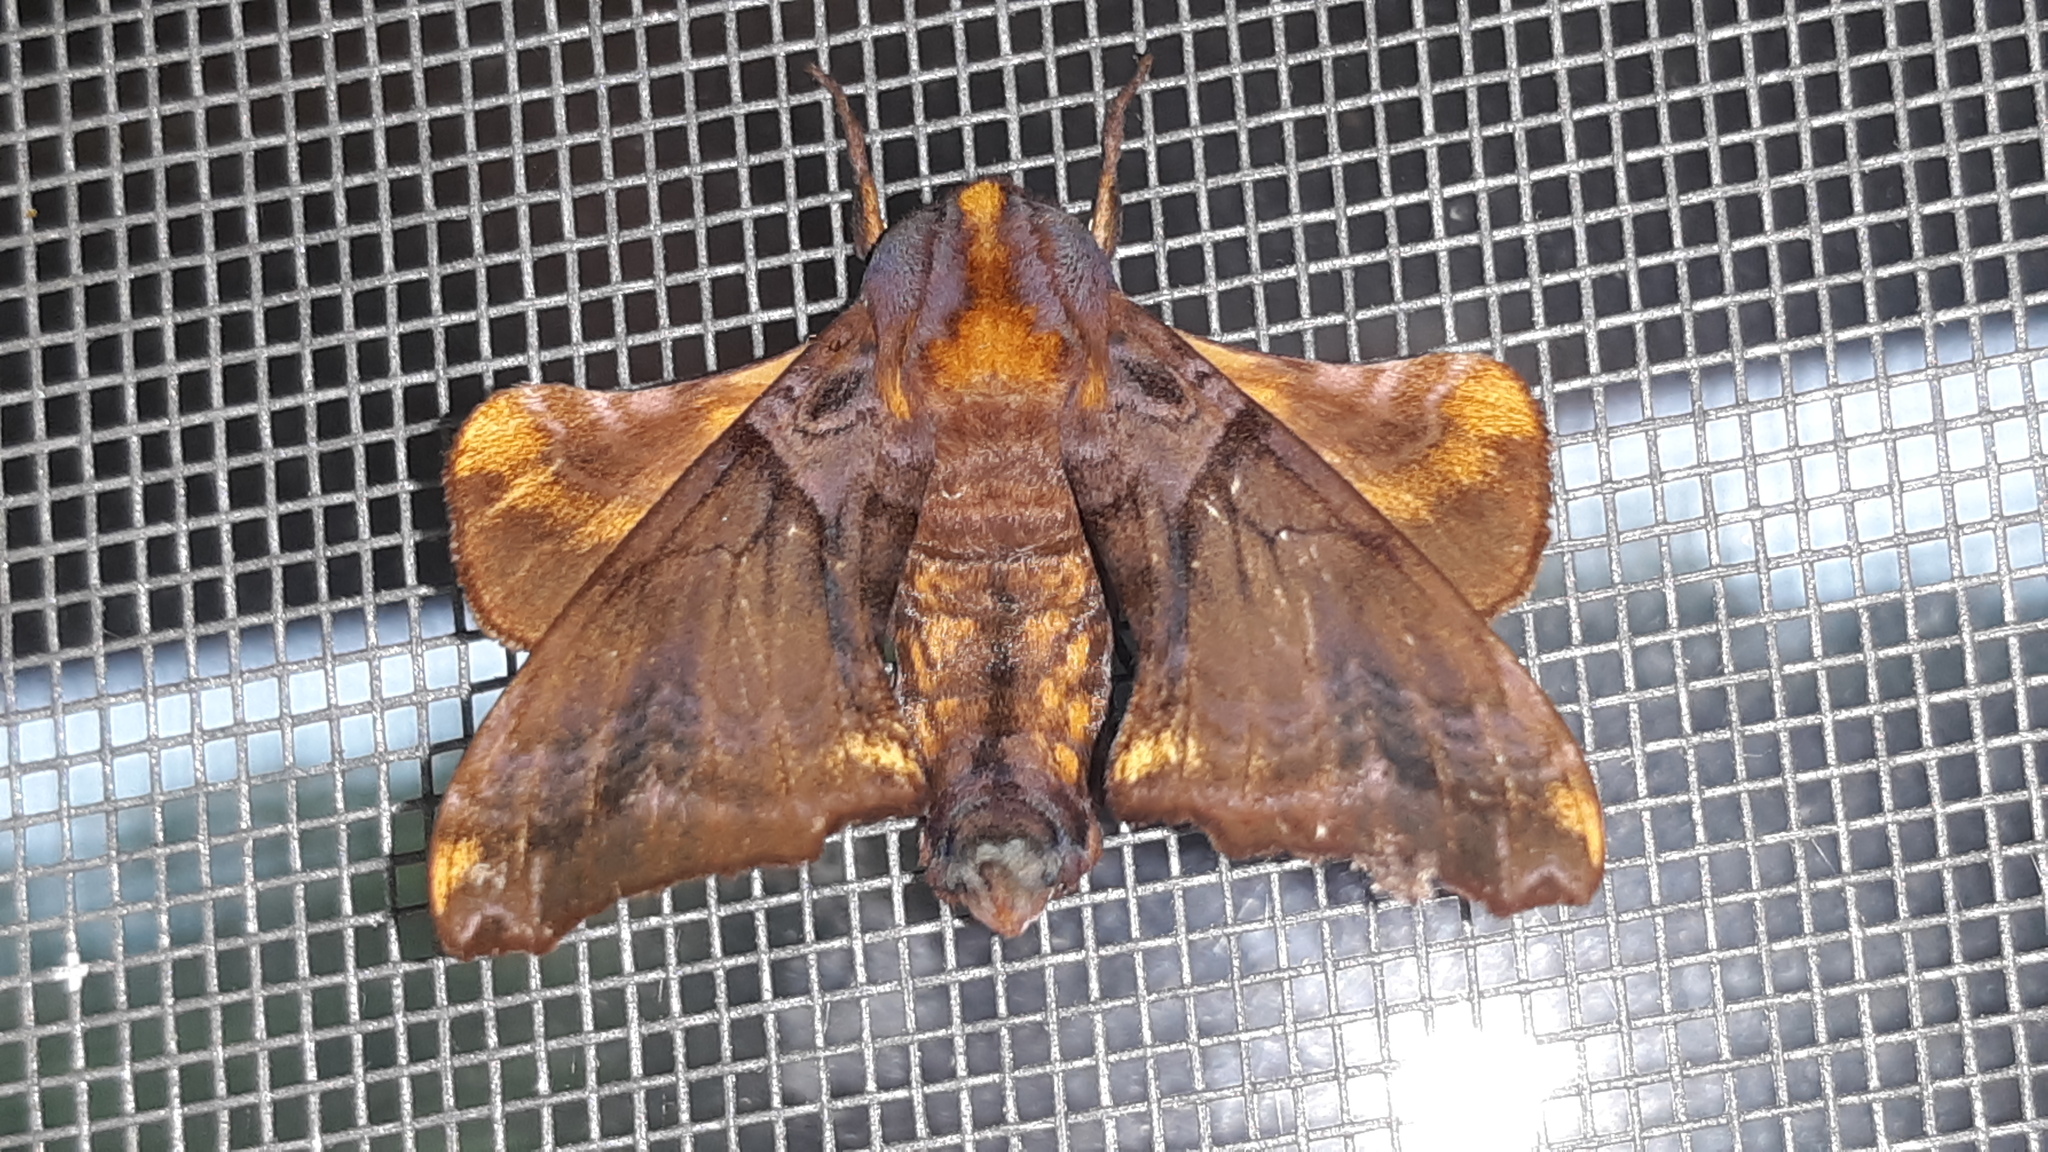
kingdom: Animalia
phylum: Arthropoda
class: Insecta
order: Lepidoptera
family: Sphingidae
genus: Paonias
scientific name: Paonias myops
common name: Small-eyed sphinx
